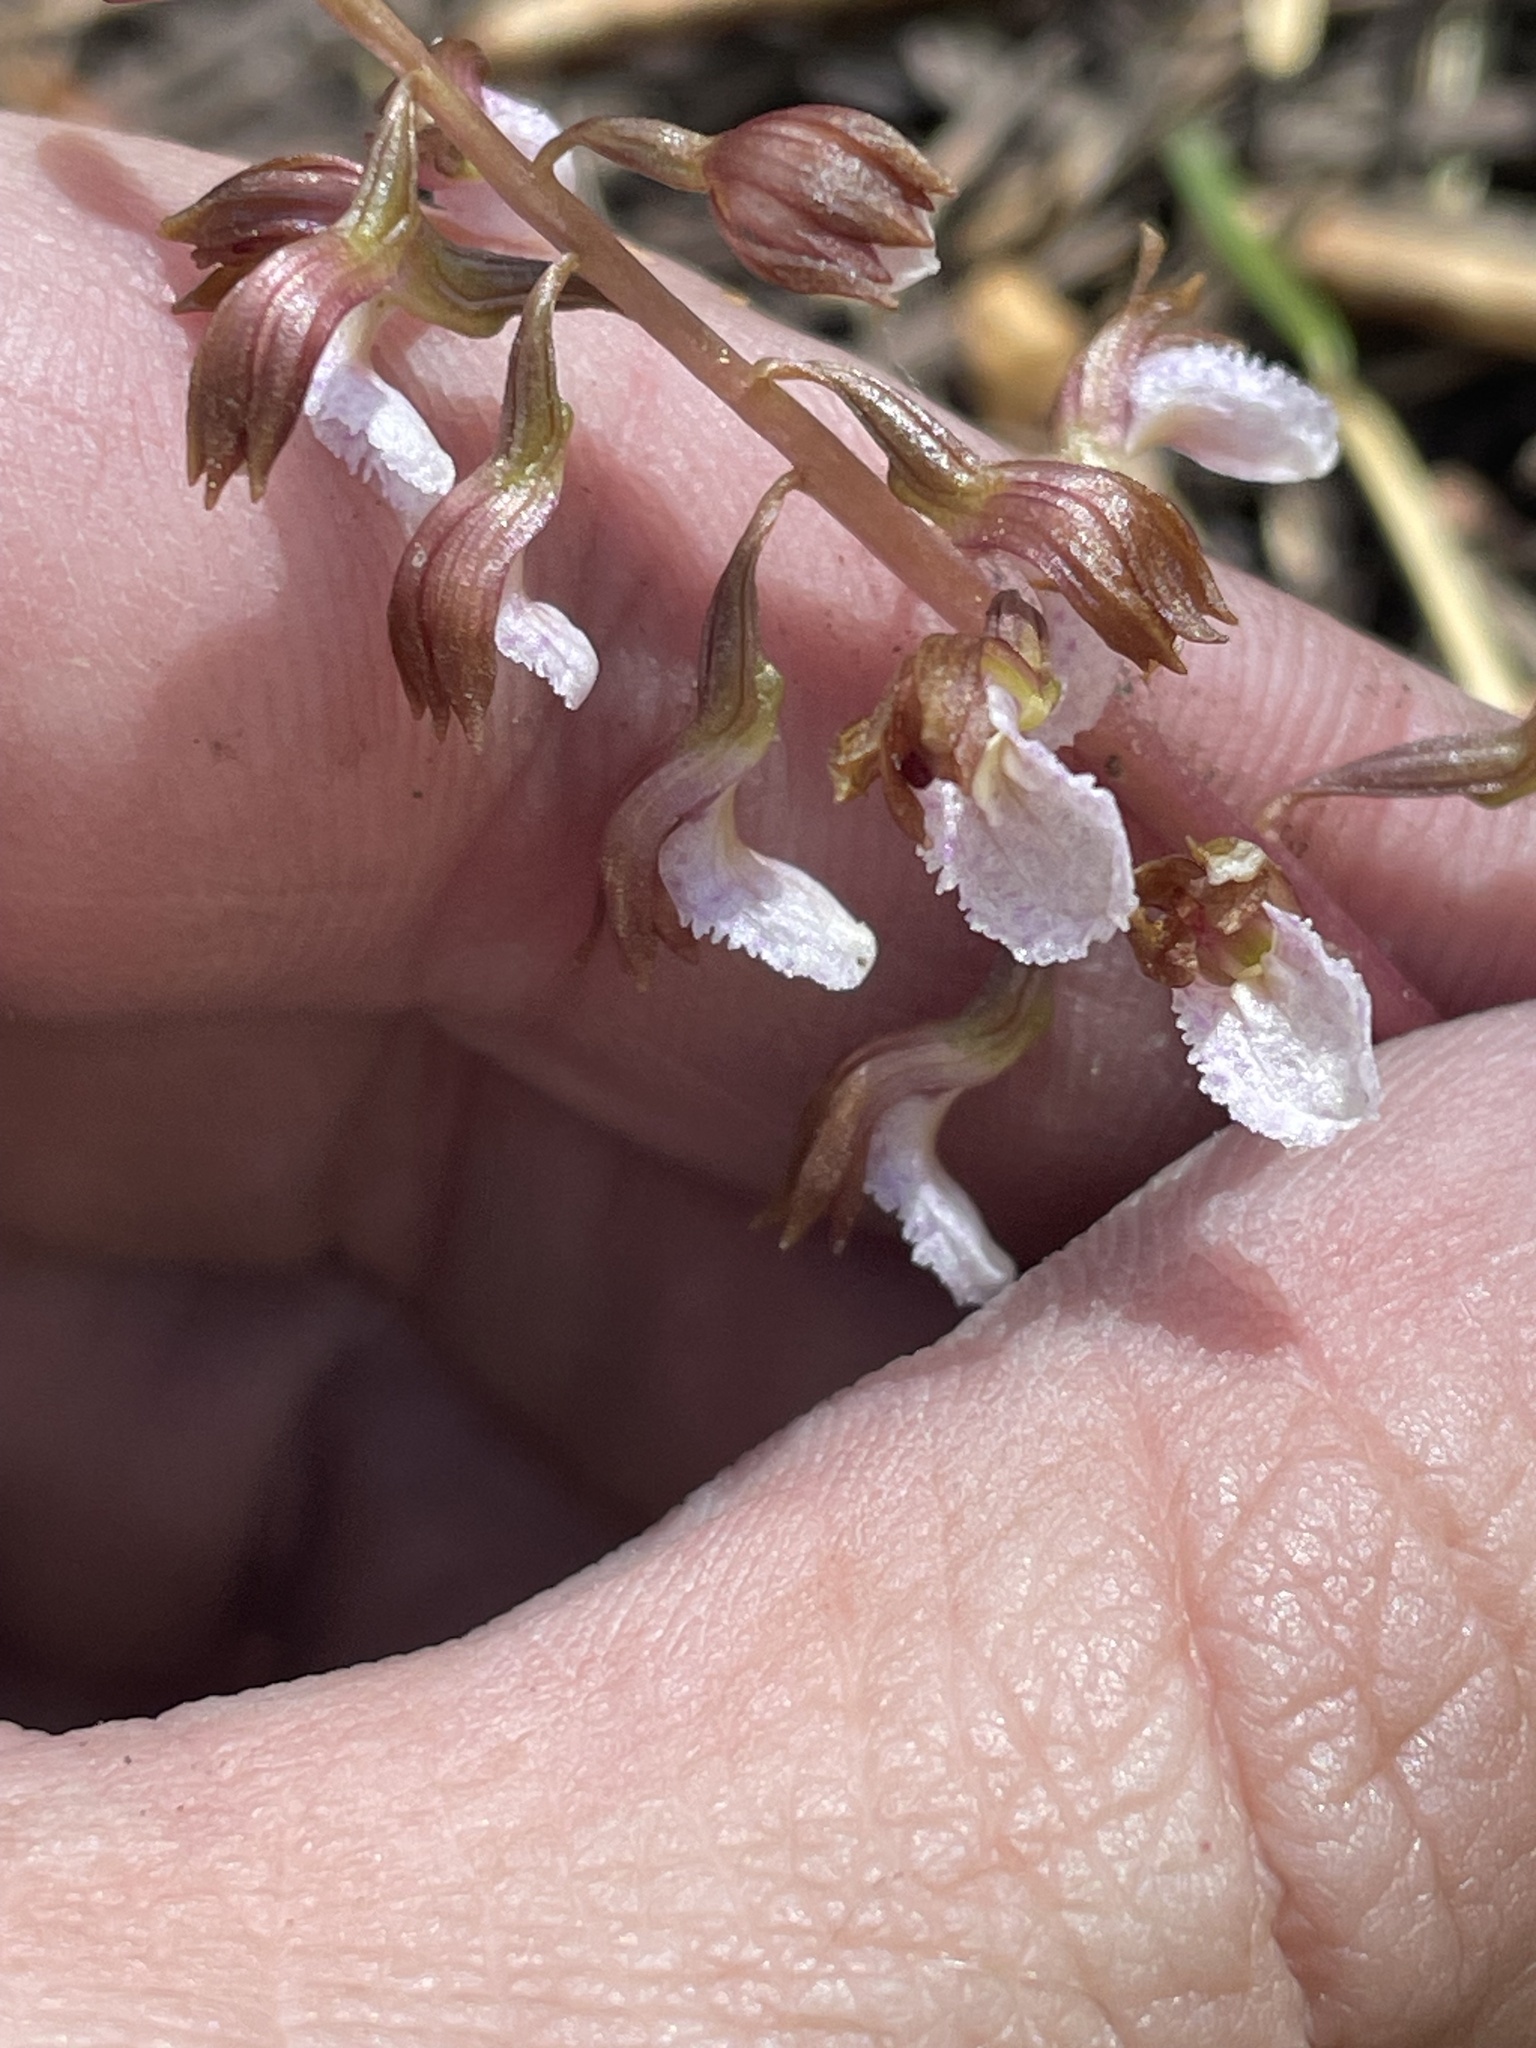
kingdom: Plantae
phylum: Tracheophyta
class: Liliopsida
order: Asparagales
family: Orchidaceae
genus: Corallorhiza
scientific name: Corallorhiza wisteriana
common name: Spring coralroot
